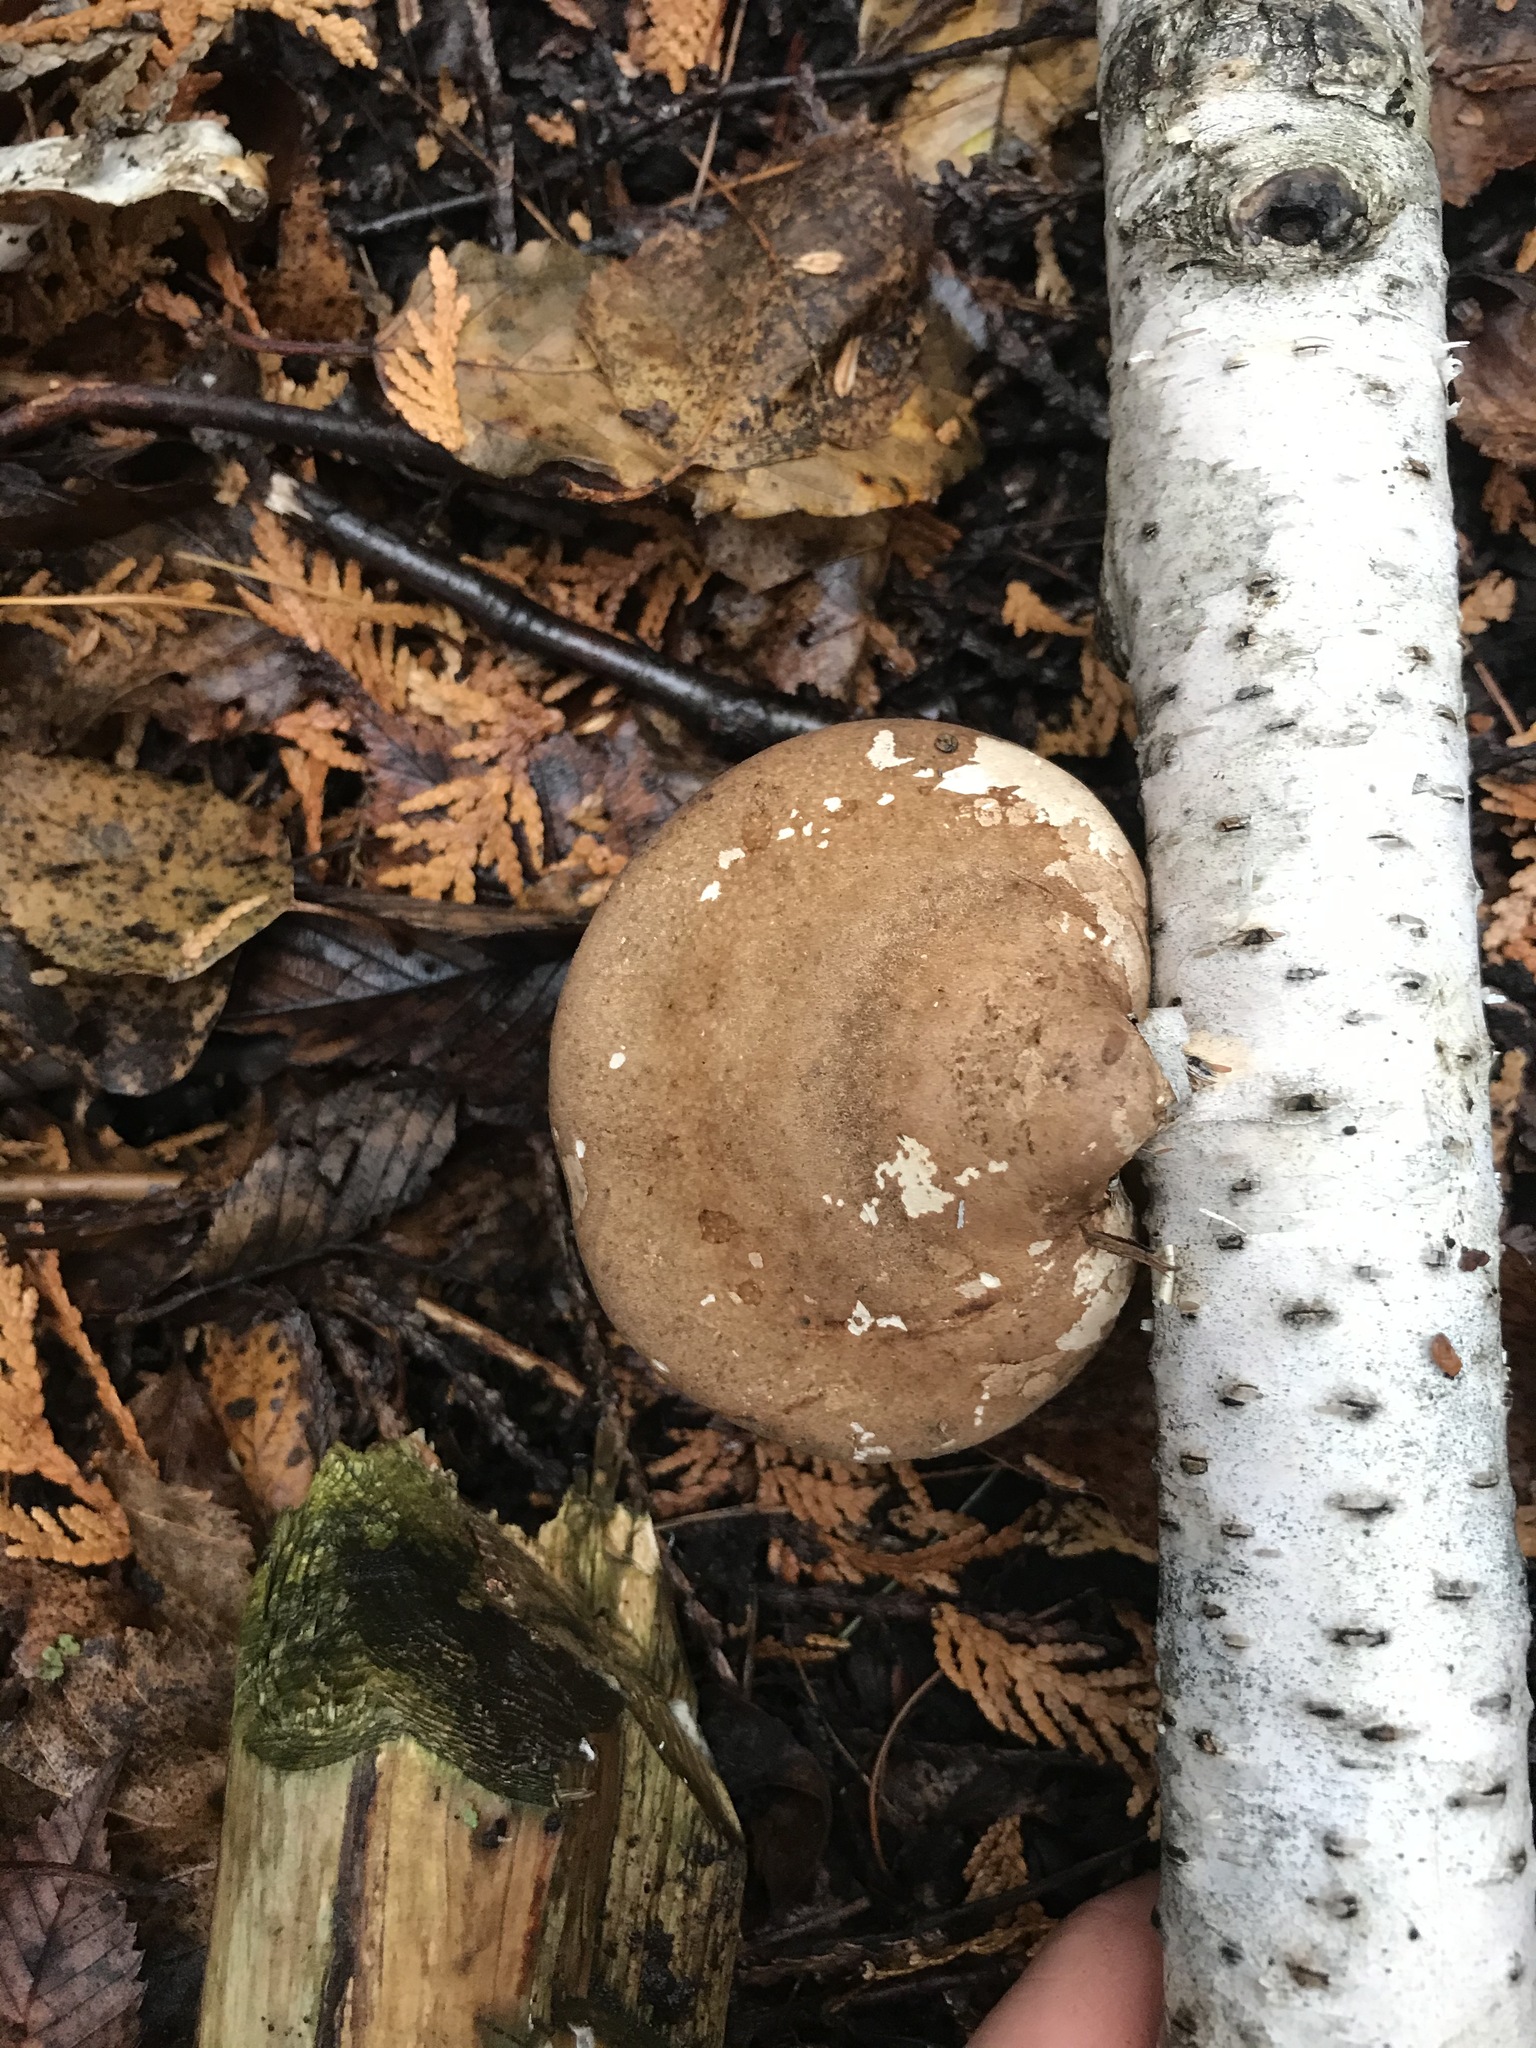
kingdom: Fungi
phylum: Basidiomycota
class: Agaricomycetes
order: Polyporales
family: Fomitopsidaceae
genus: Fomitopsis
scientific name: Fomitopsis betulina
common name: Birch polypore
